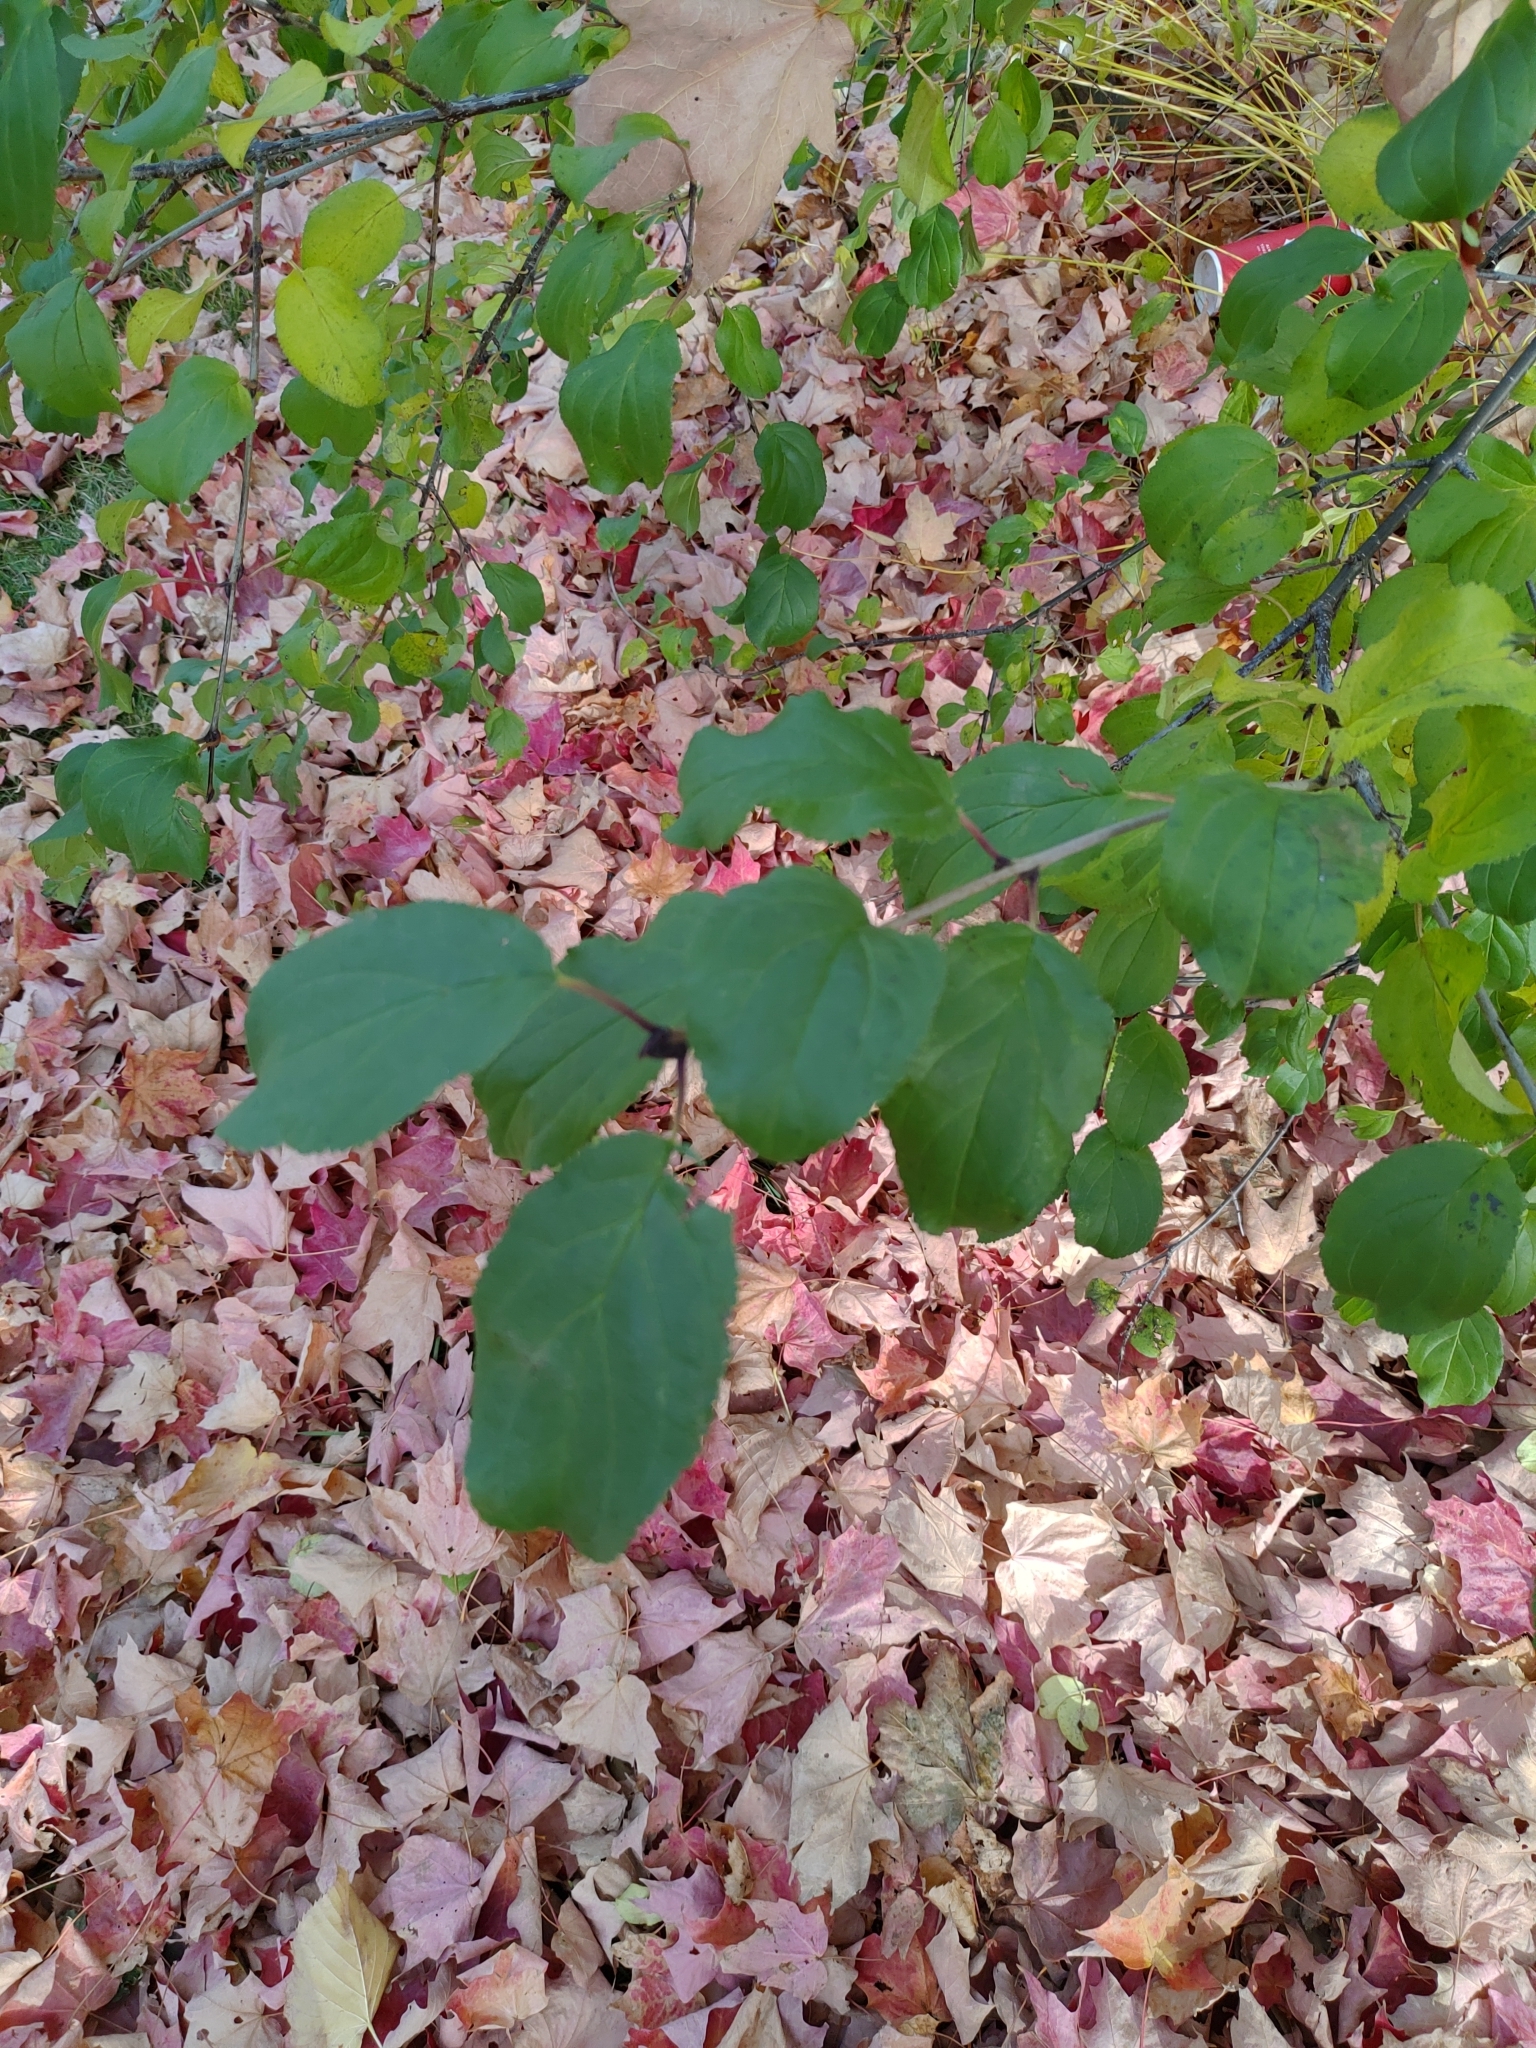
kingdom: Plantae
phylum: Tracheophyta
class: Magnoliopsida
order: Rosales
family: Rhamnaceae
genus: Rhamnus
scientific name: Rhamnus cathartica
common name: Common buckthorn
